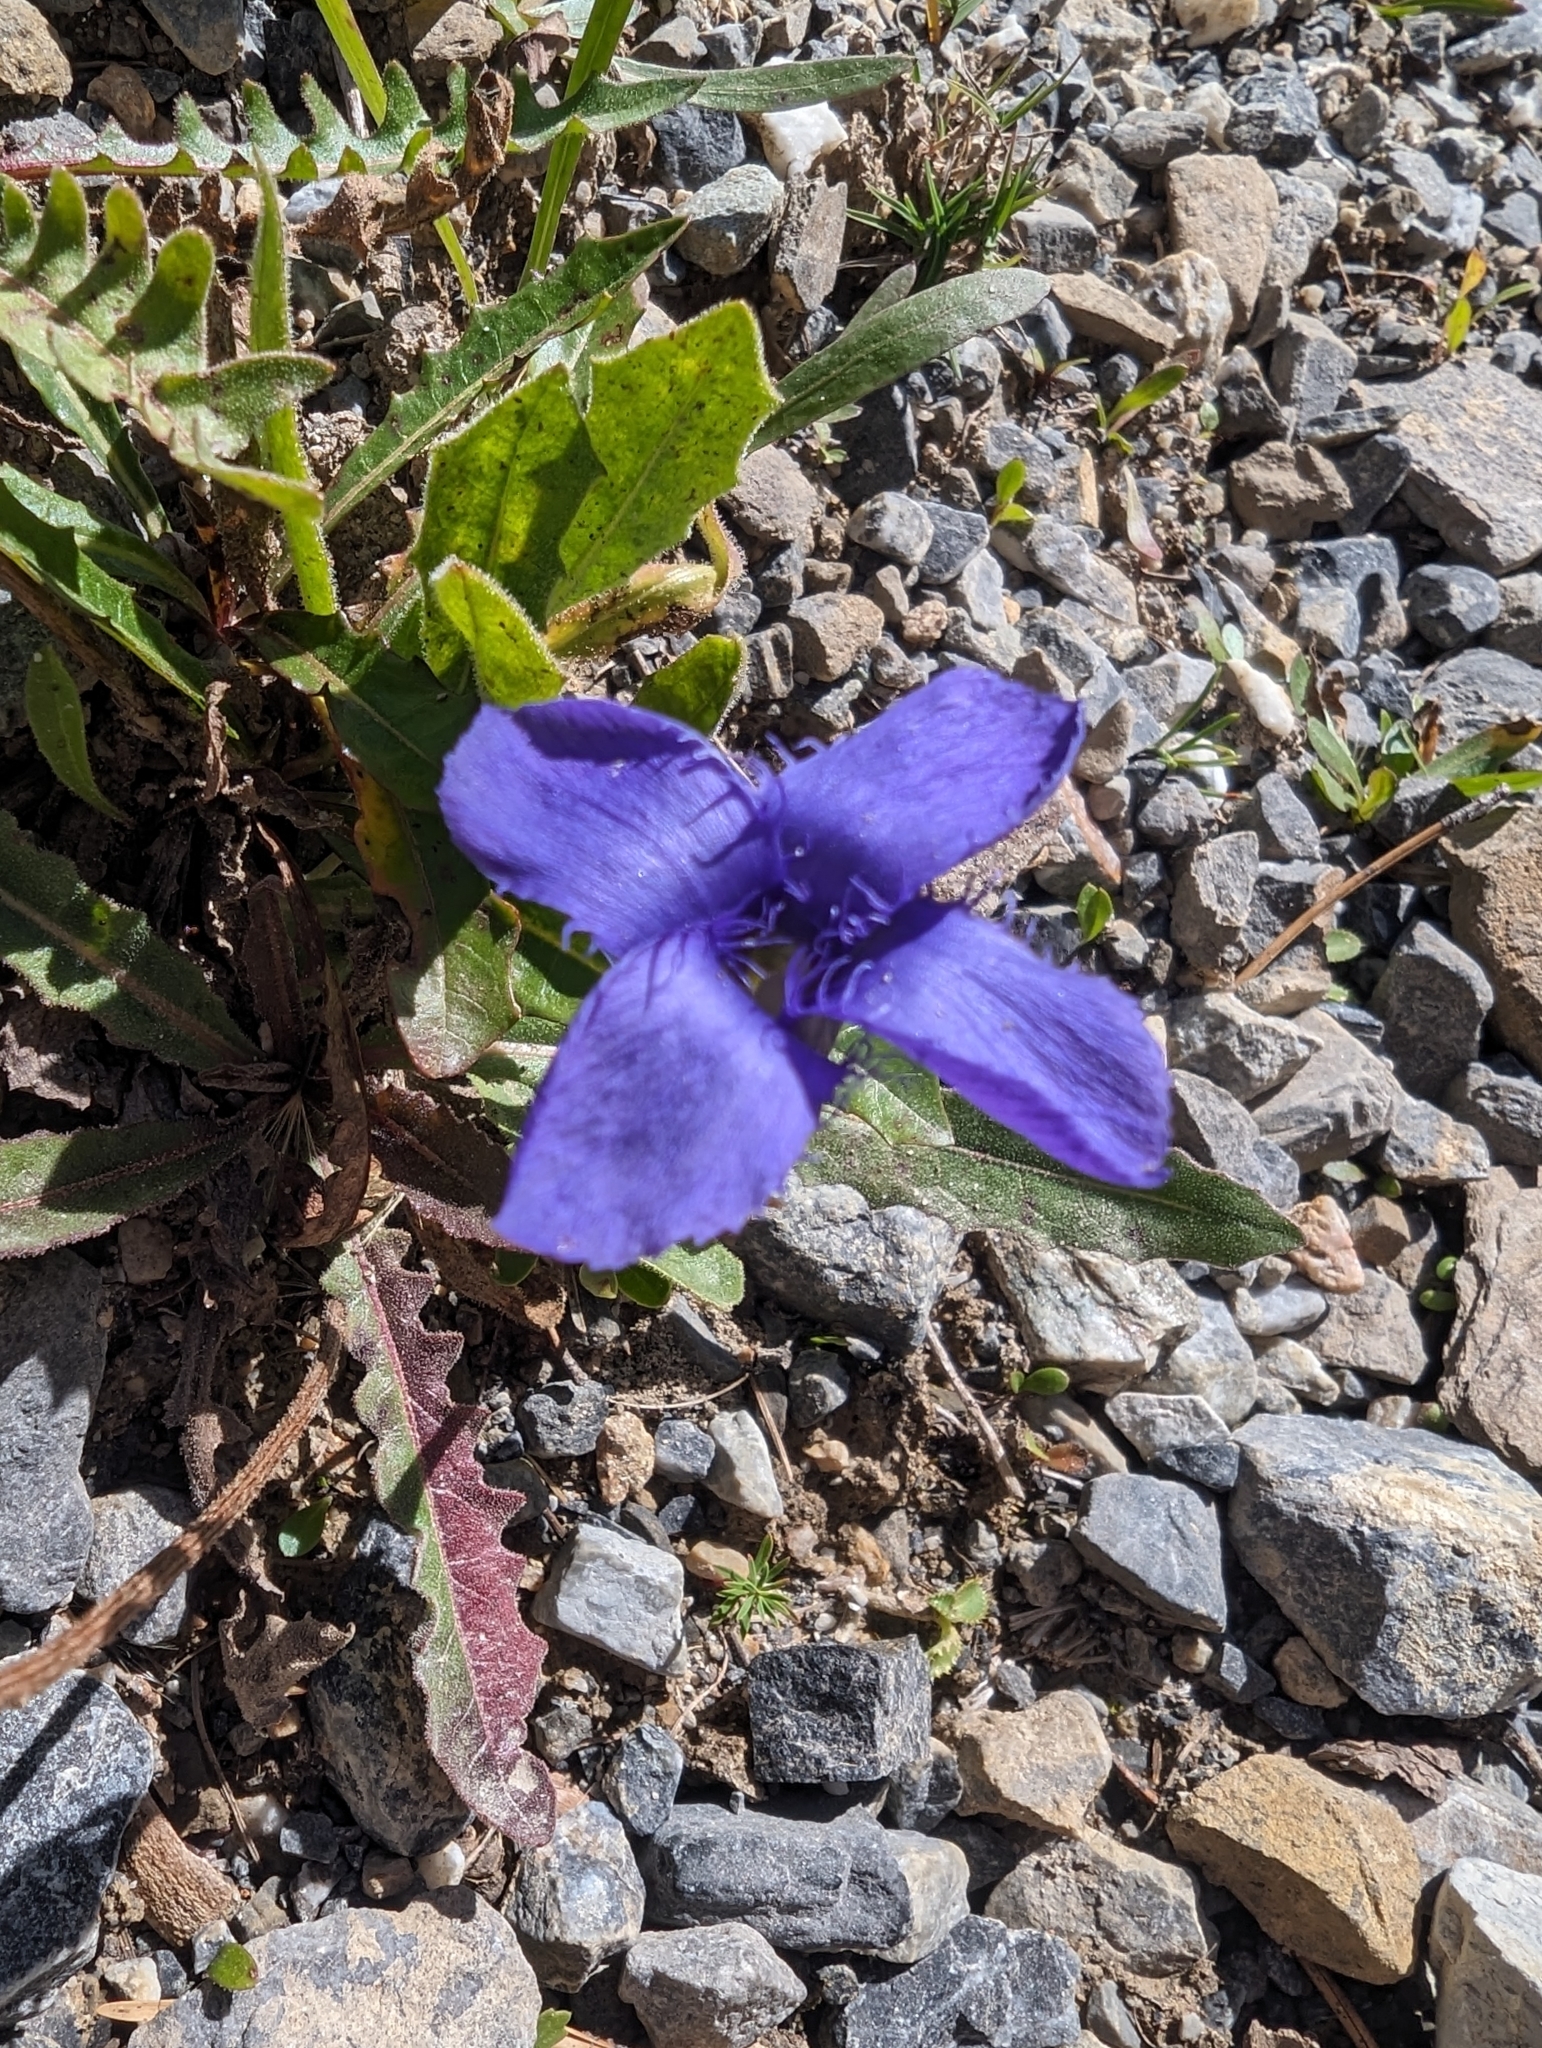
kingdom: Plantae
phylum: Tracheophyta
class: Magnoliopsida
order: Gentianales
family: Gentianaceae
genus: Gentianopsis
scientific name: Gentianopsis ciliata
